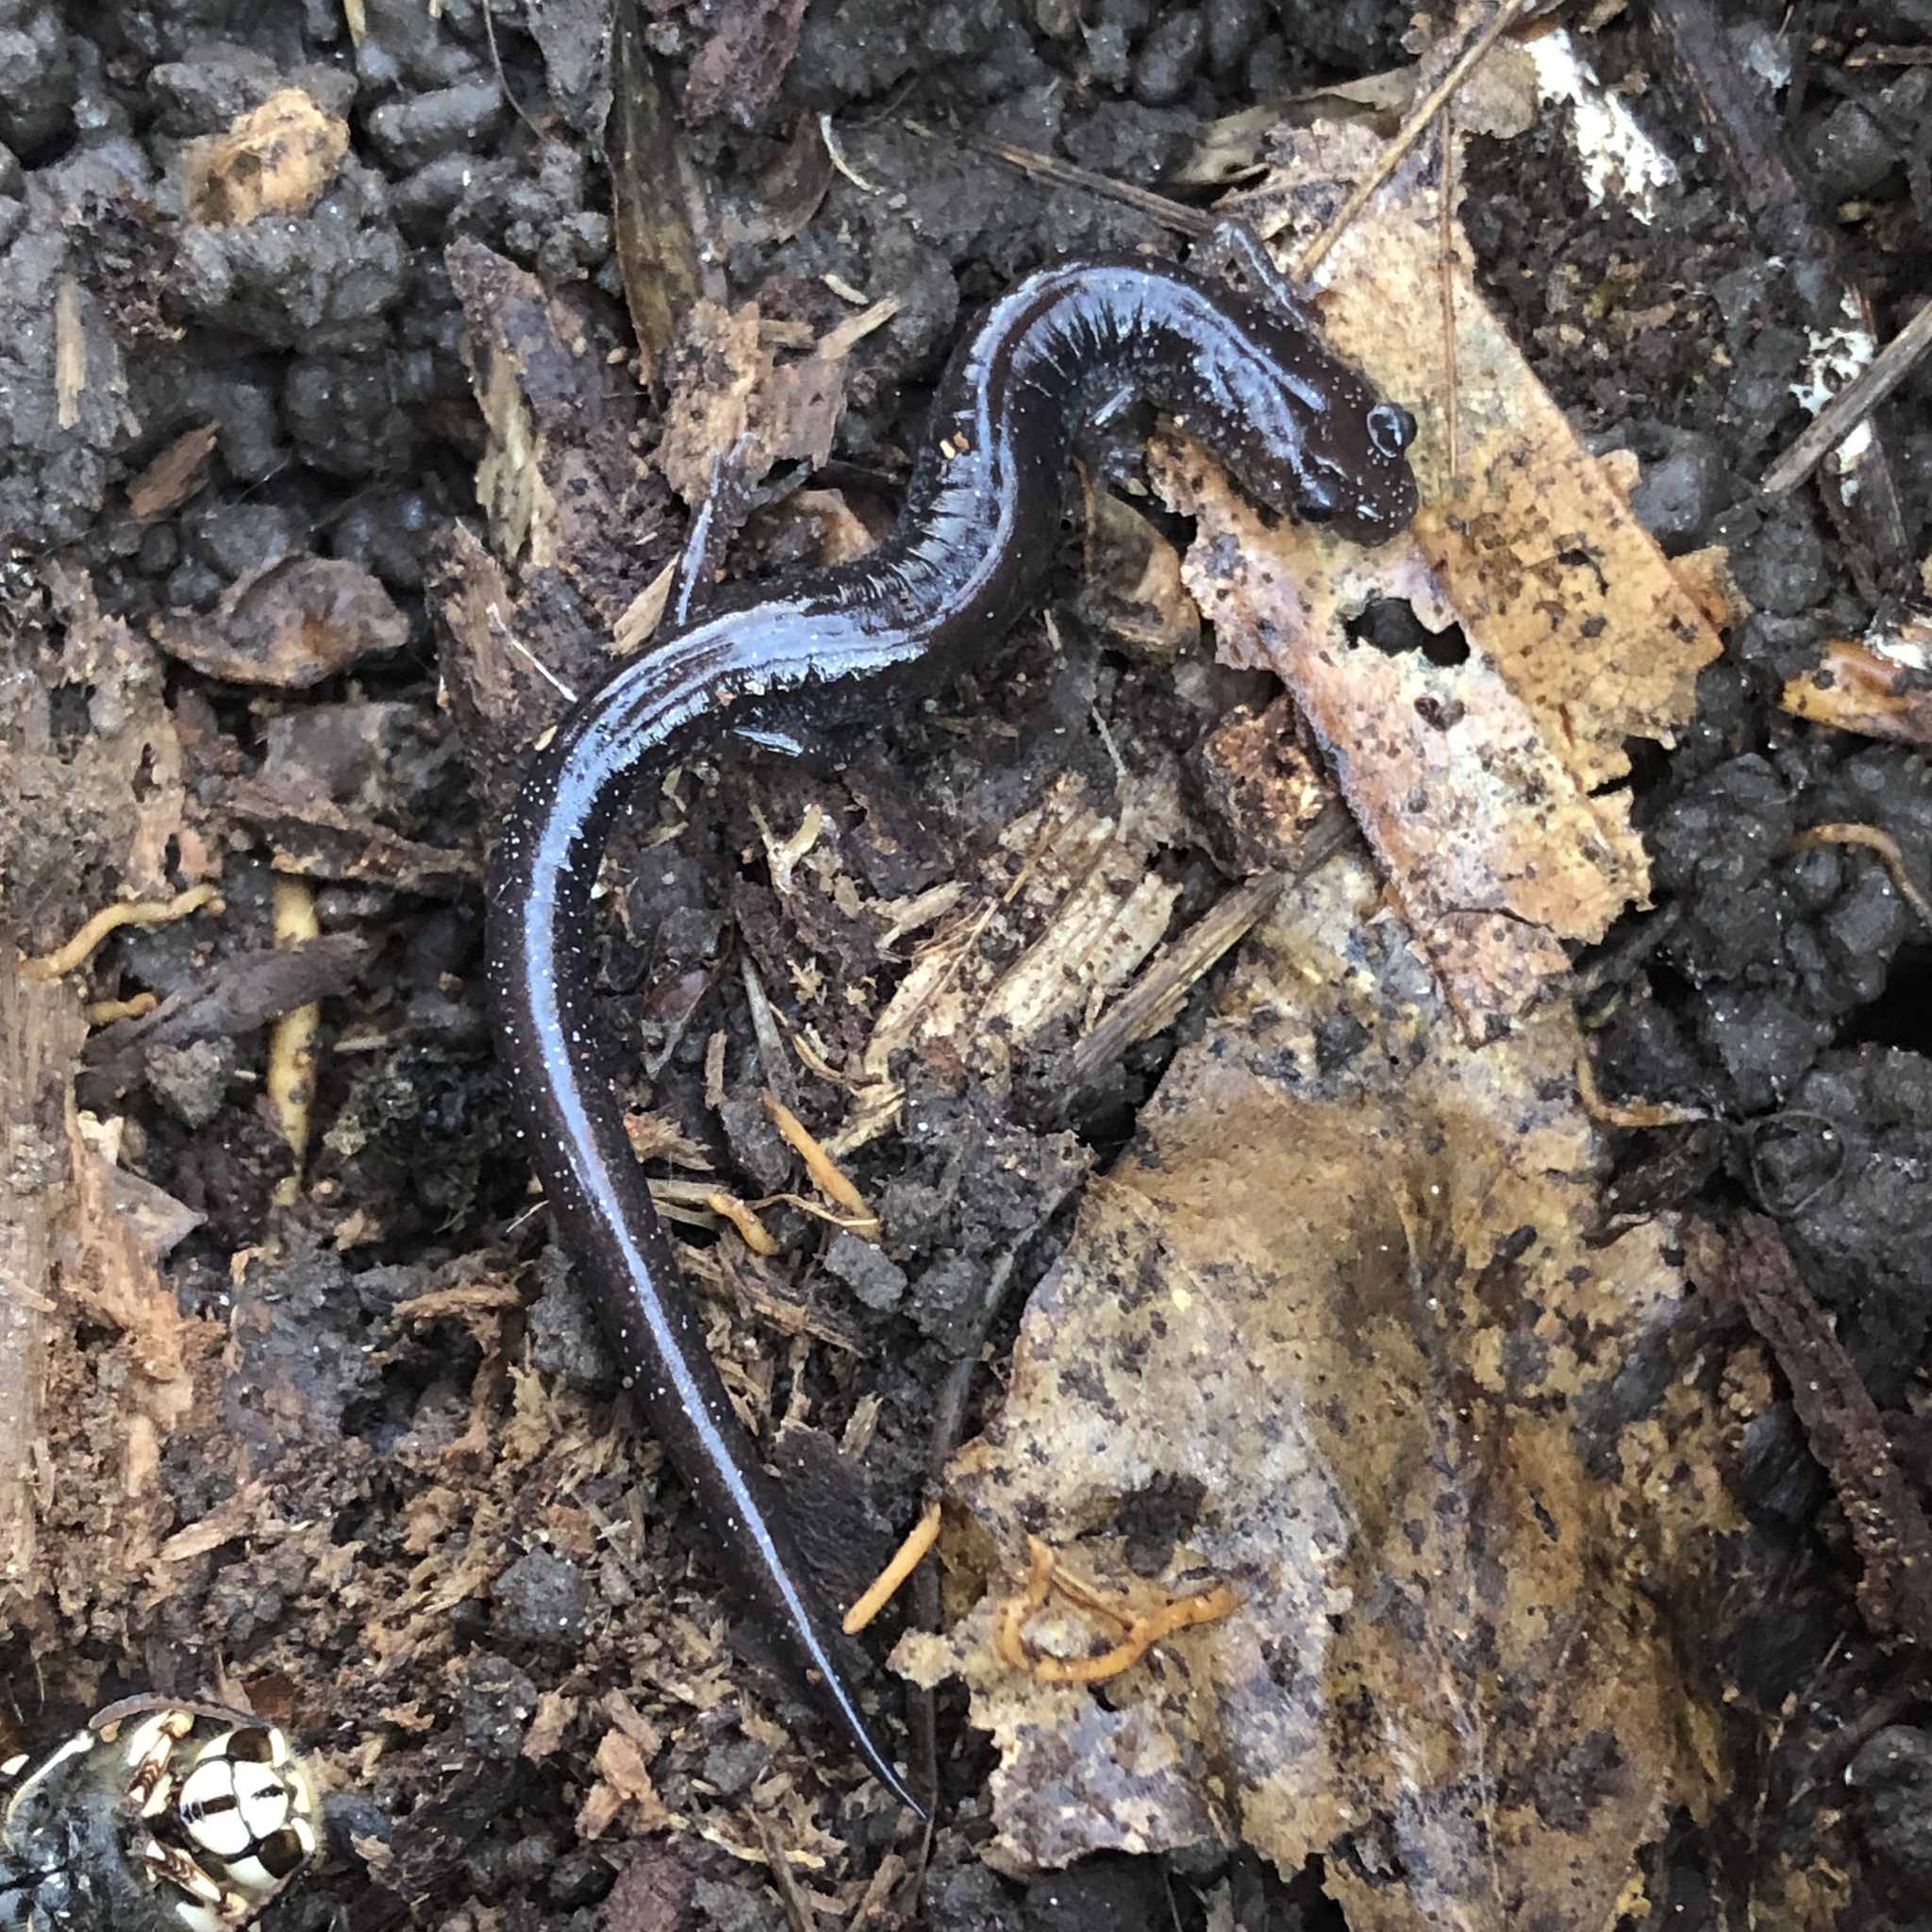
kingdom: Animalia
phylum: Chordata
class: Amphibia
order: Caudata
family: Plethodontidae
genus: Plethodon
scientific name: Plethodon cinereus
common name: Redback salamander
